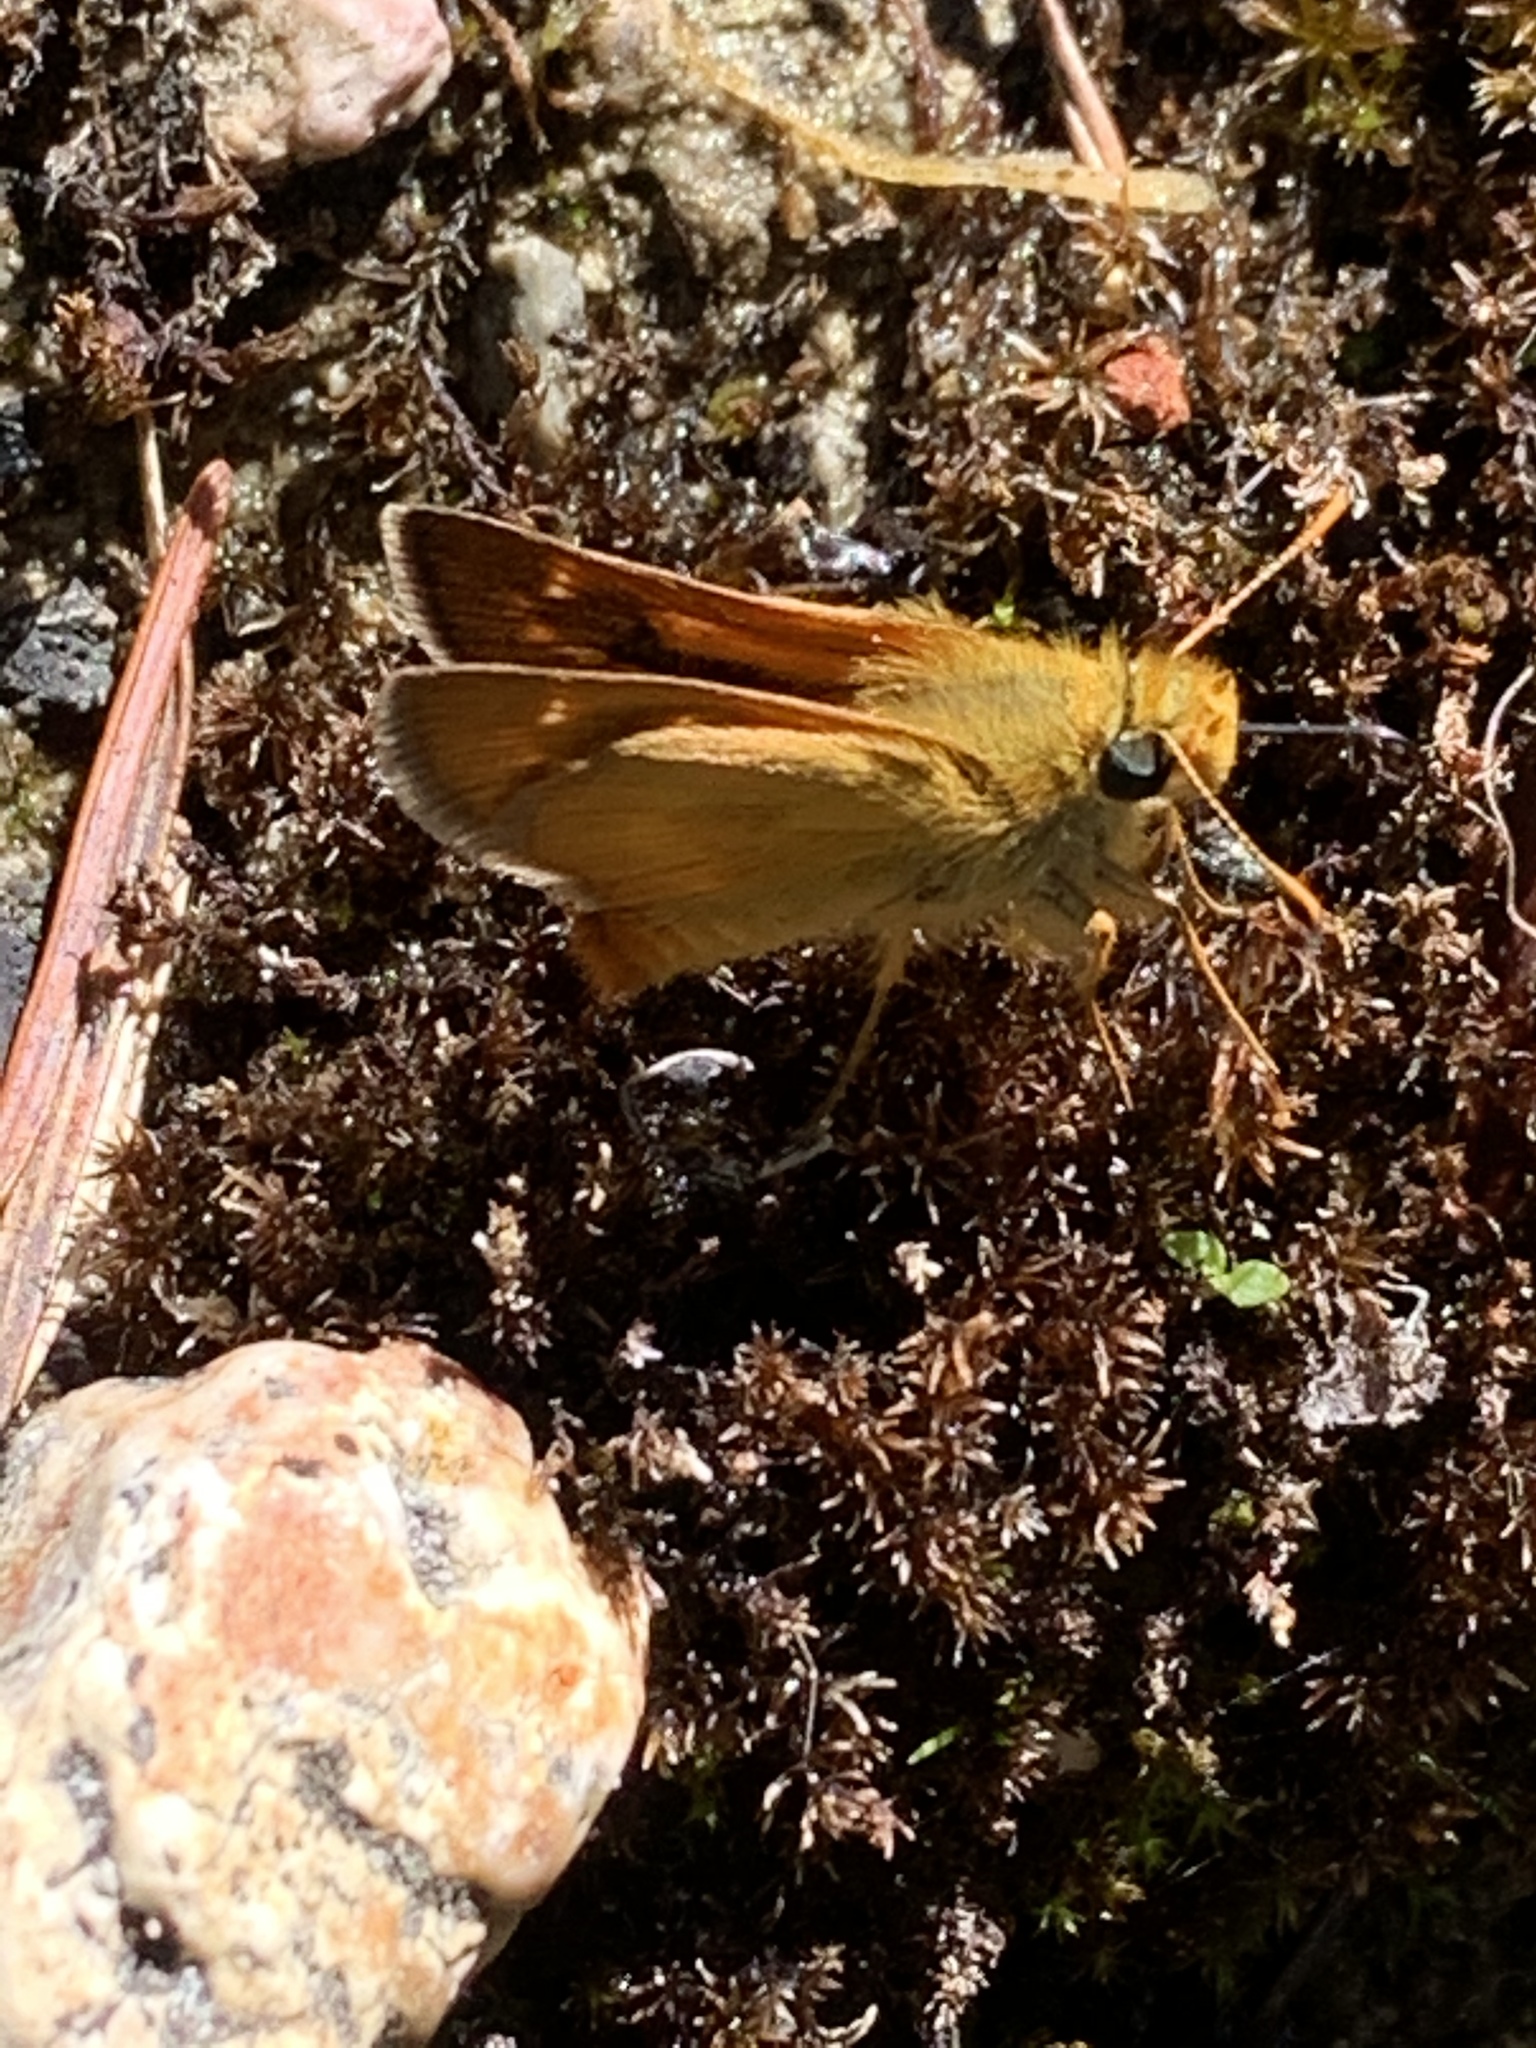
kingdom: Animalia
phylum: Arthropoda
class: Insecta
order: Lepidoptera
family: Hesperiidae
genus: Ochlodes
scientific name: Ochlodes agricola
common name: Rural skipper
